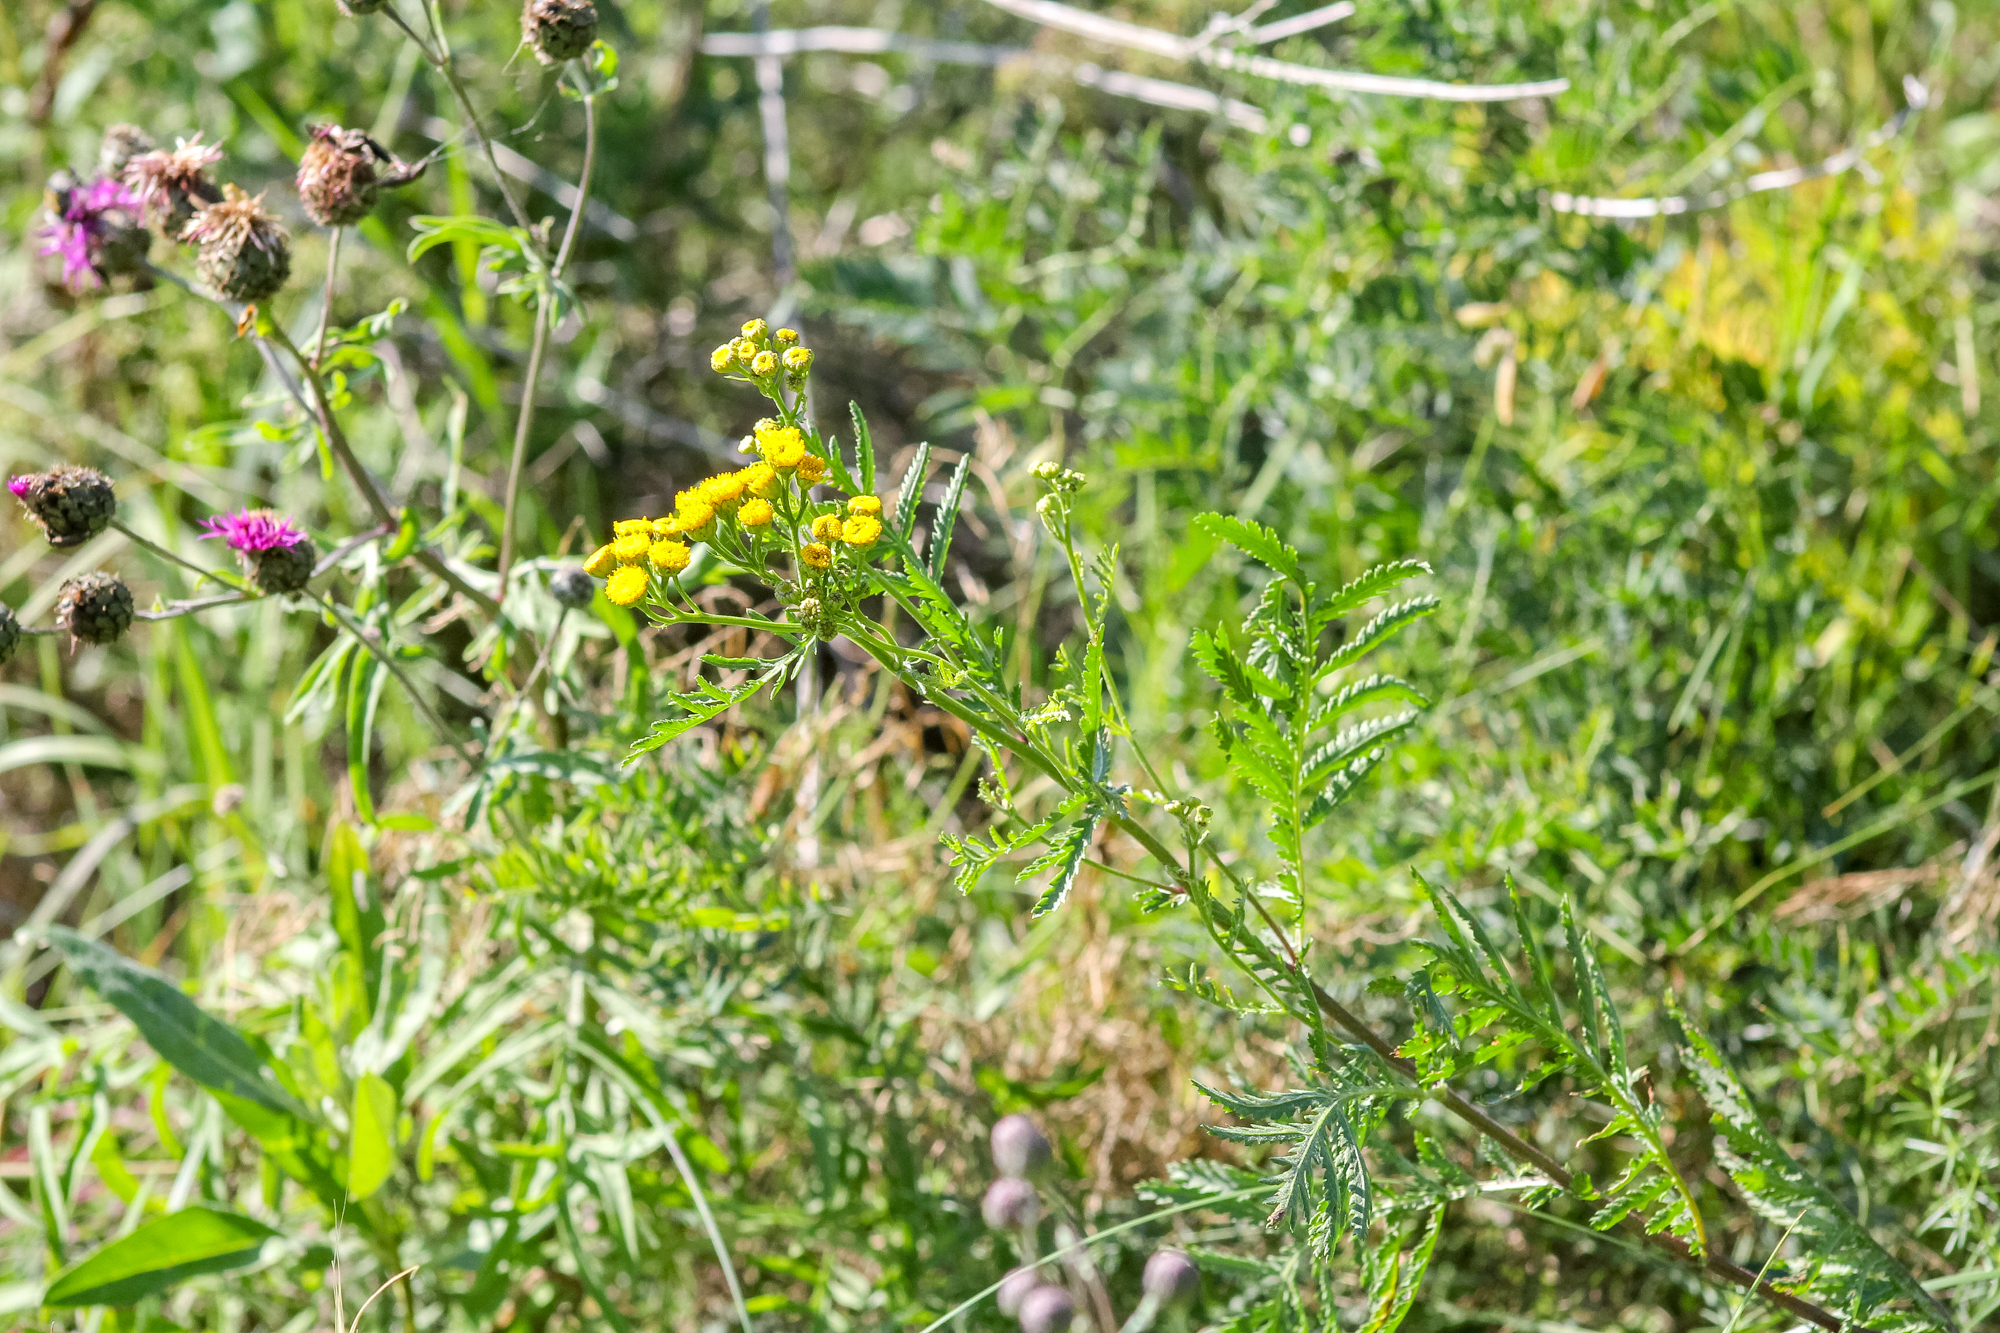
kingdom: Plantae
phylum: Tracheophyta
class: Magnoliopsida
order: Asterales
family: Asteraceae
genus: Tanacetum
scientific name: Tanacetum vulgare
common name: Common tansy
